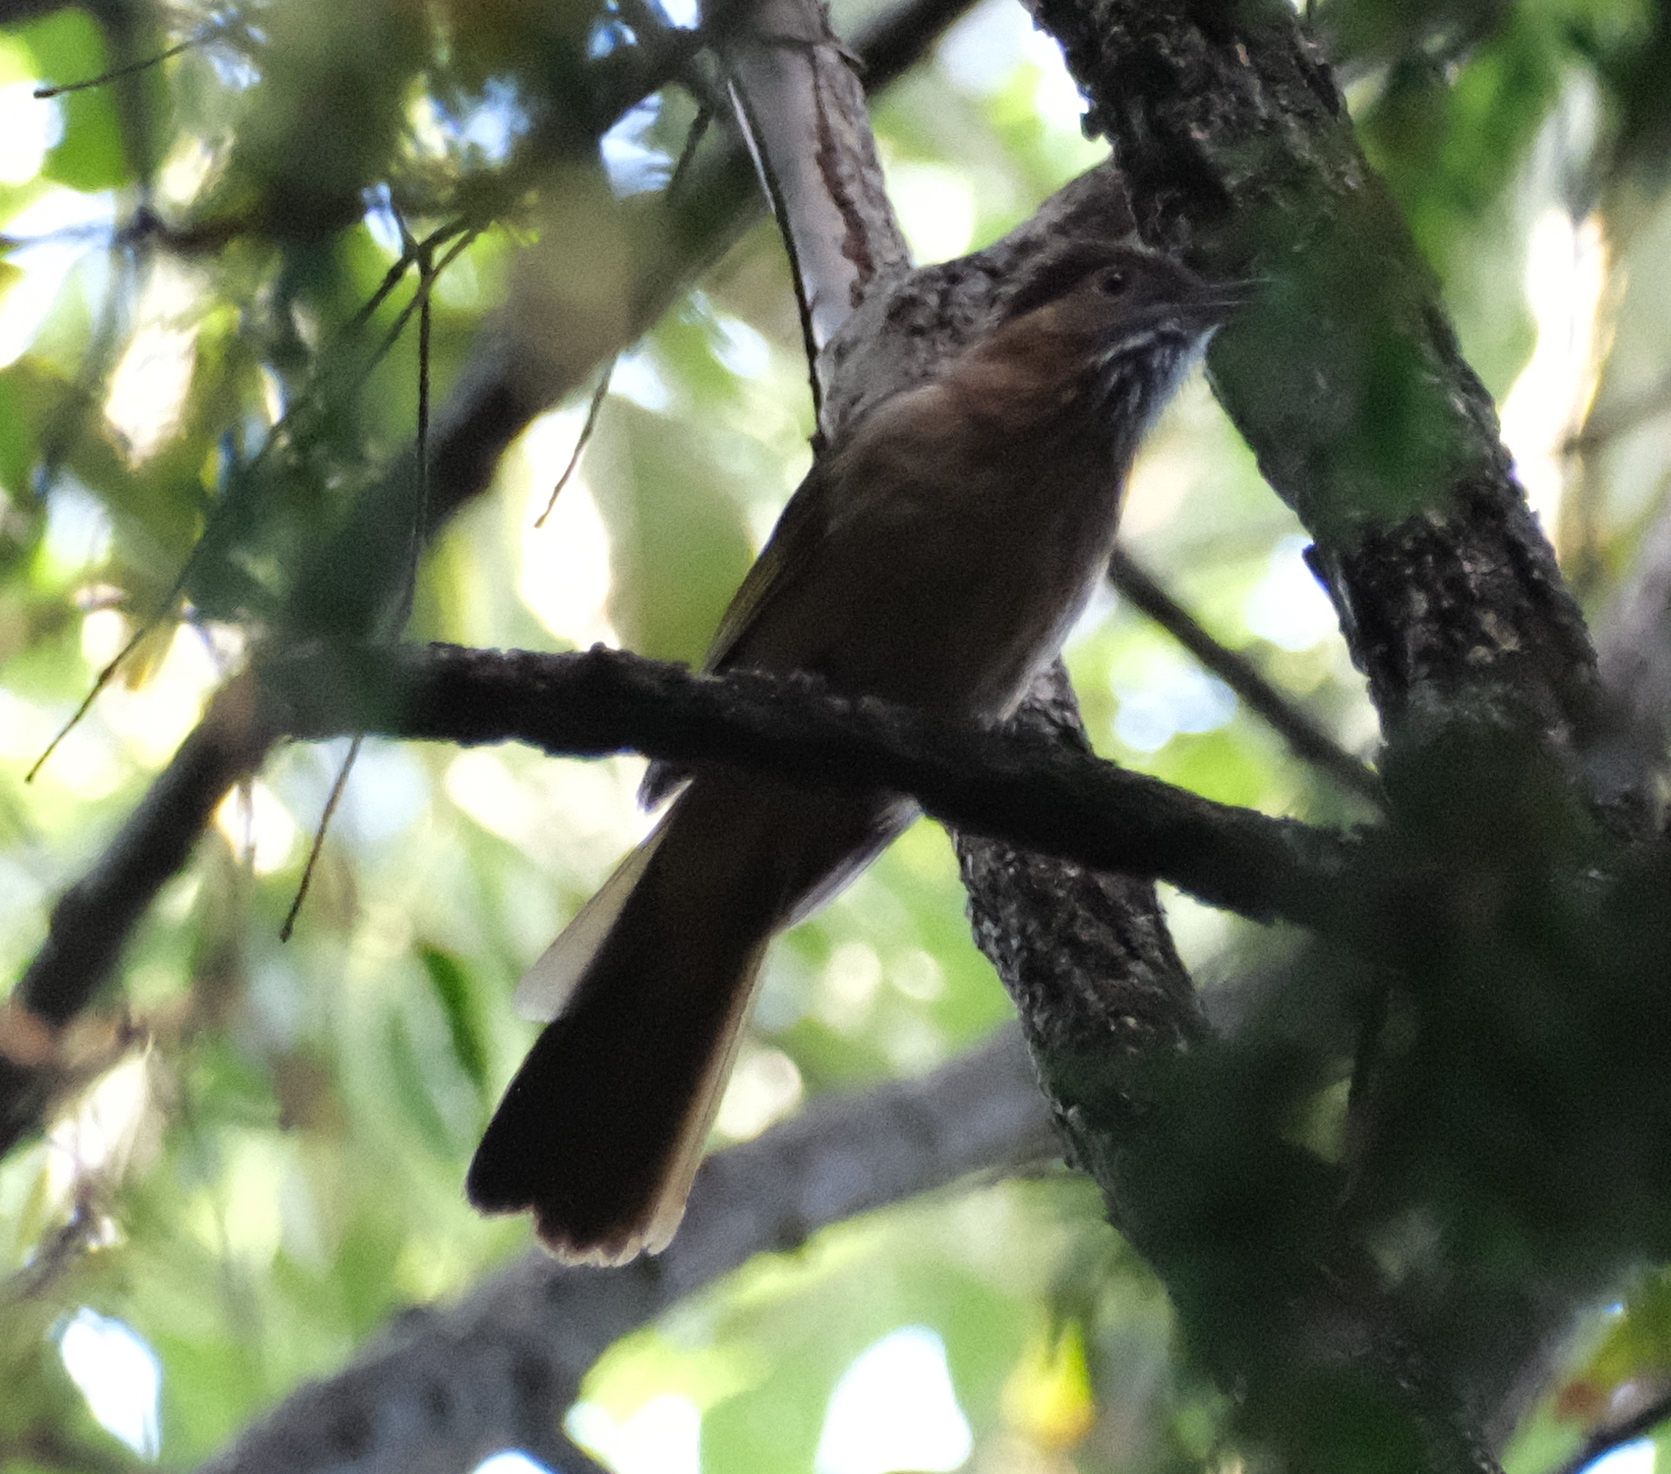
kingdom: Animalia
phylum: Chordata
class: Aves
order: Passeriformes
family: Pycnonotidae
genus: Ixos
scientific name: Ixos mcclellandii
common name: Mountain bulbul
